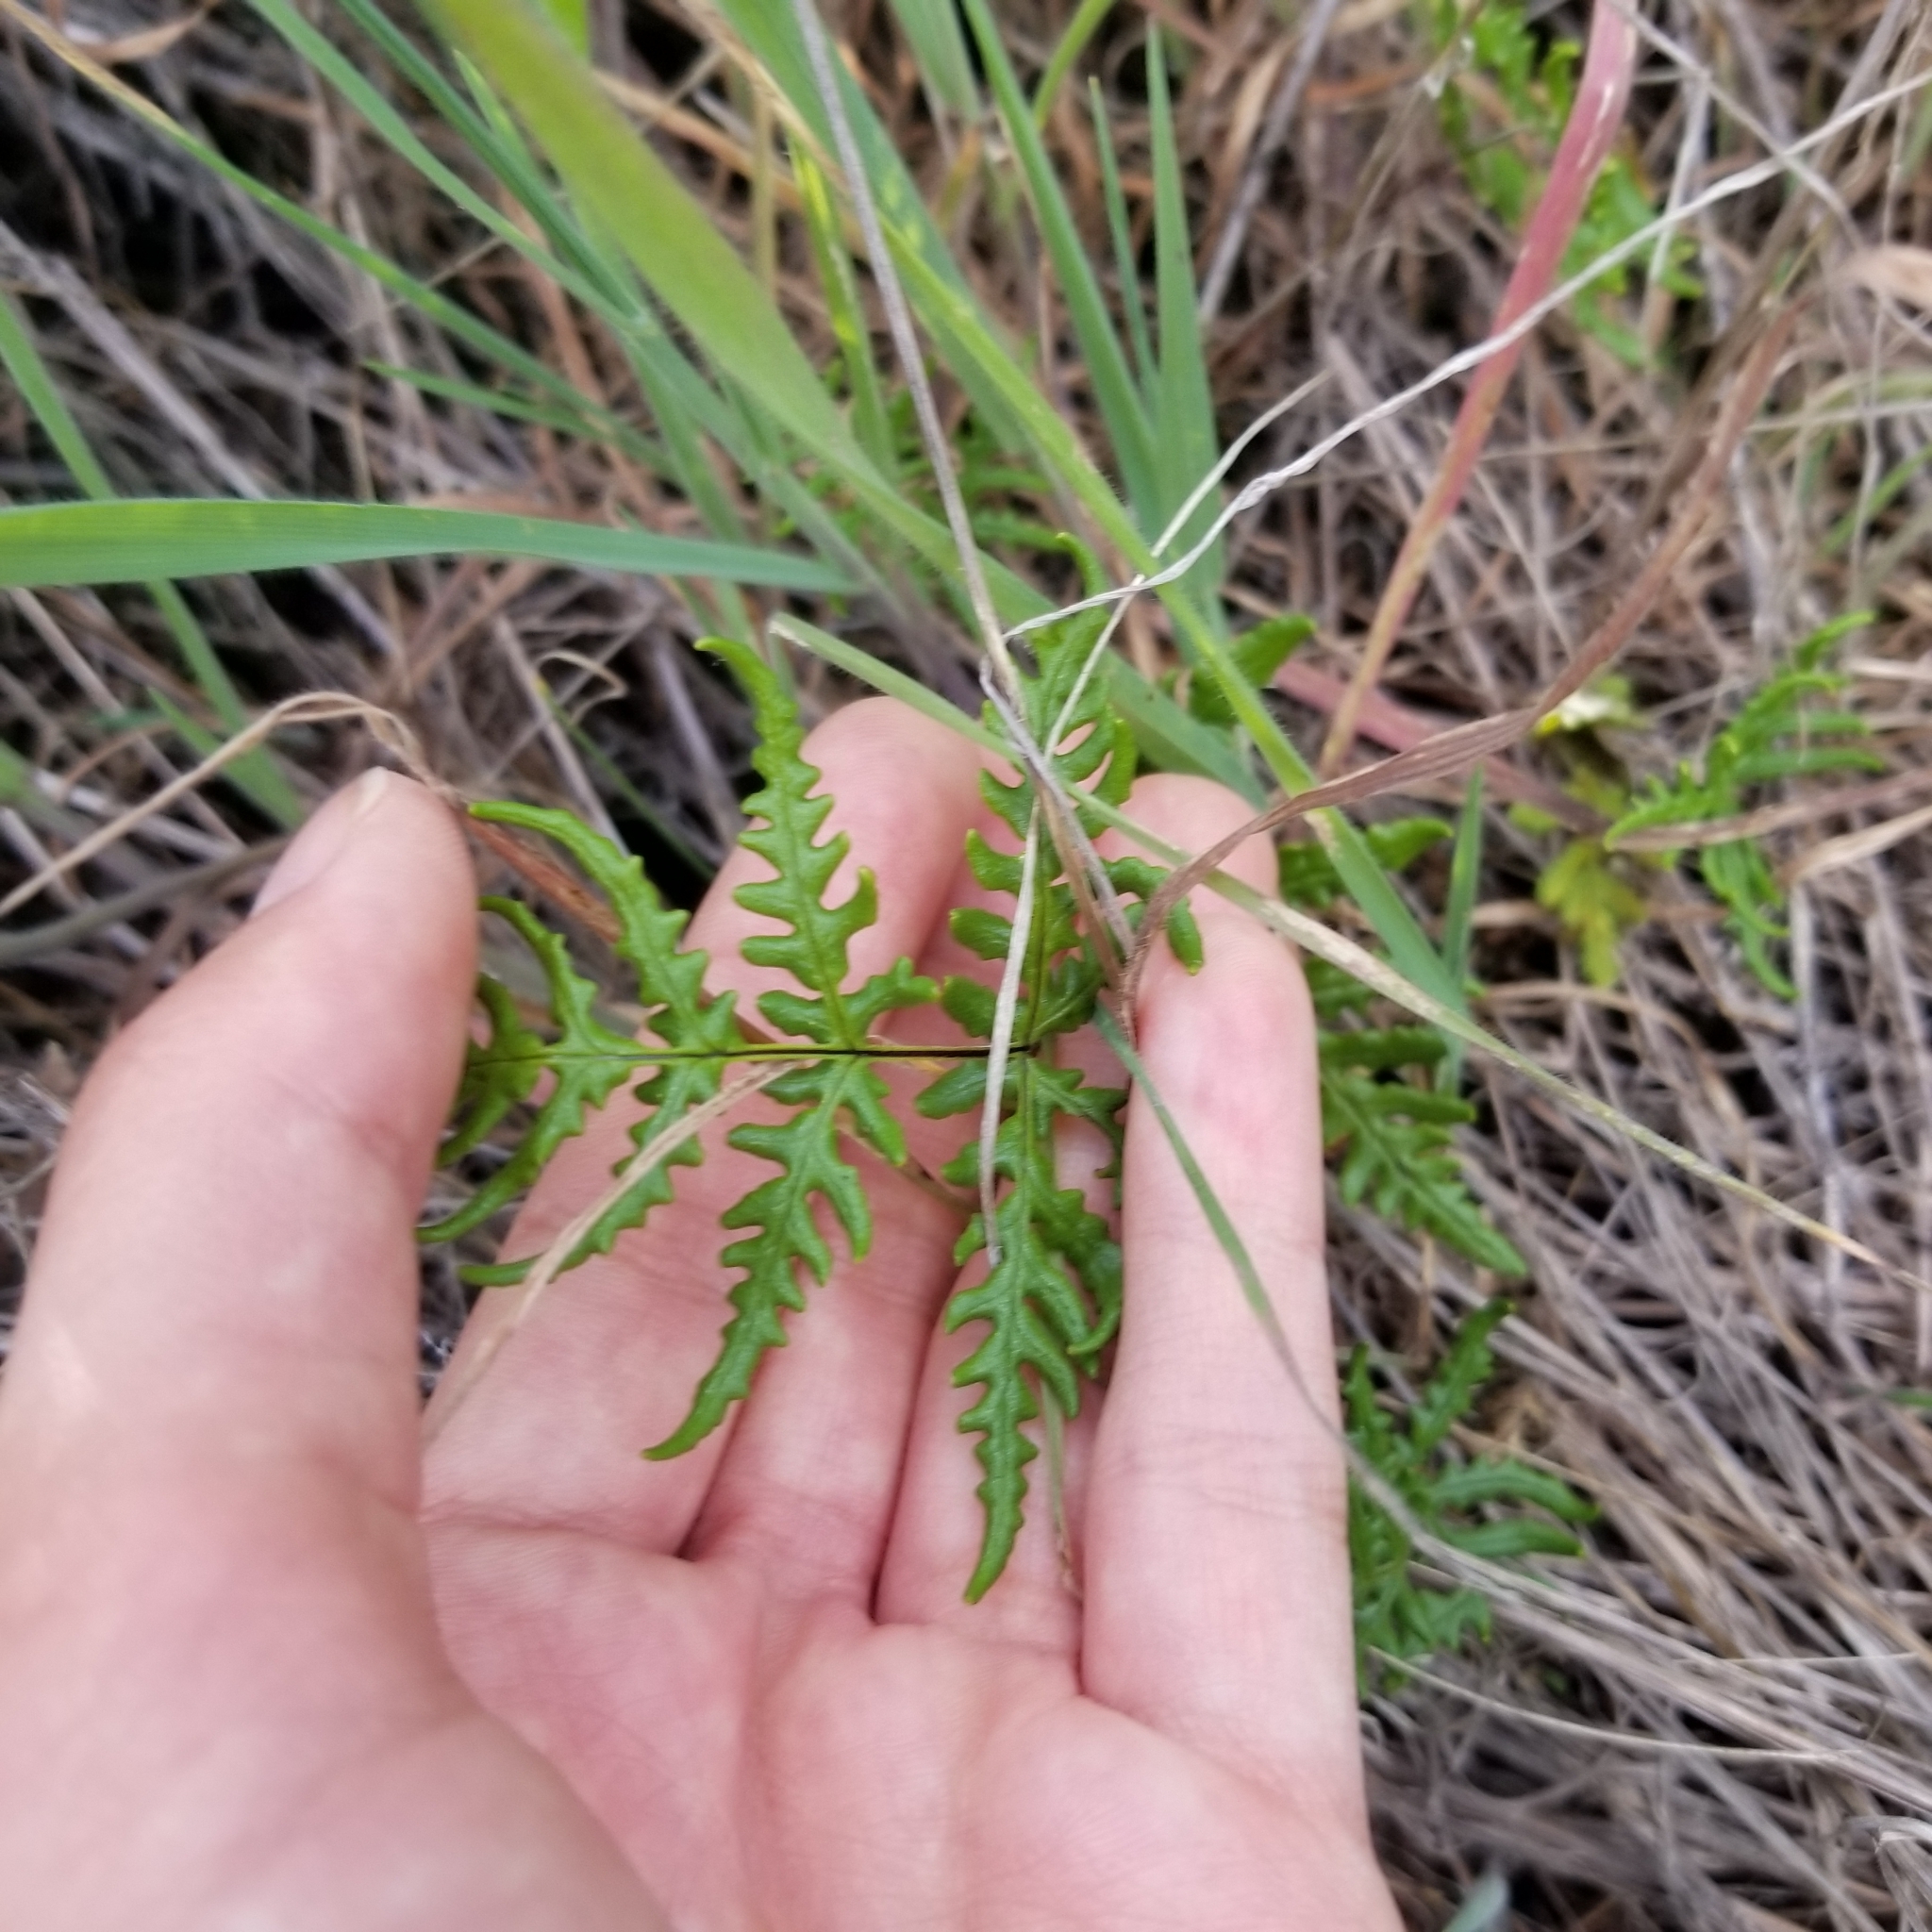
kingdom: Plantae
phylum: Tracheophyta
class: Polypodiopsida
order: Polypodiales
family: Pteridaceae
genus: Pentagramma
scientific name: Pentagramma viscosa
